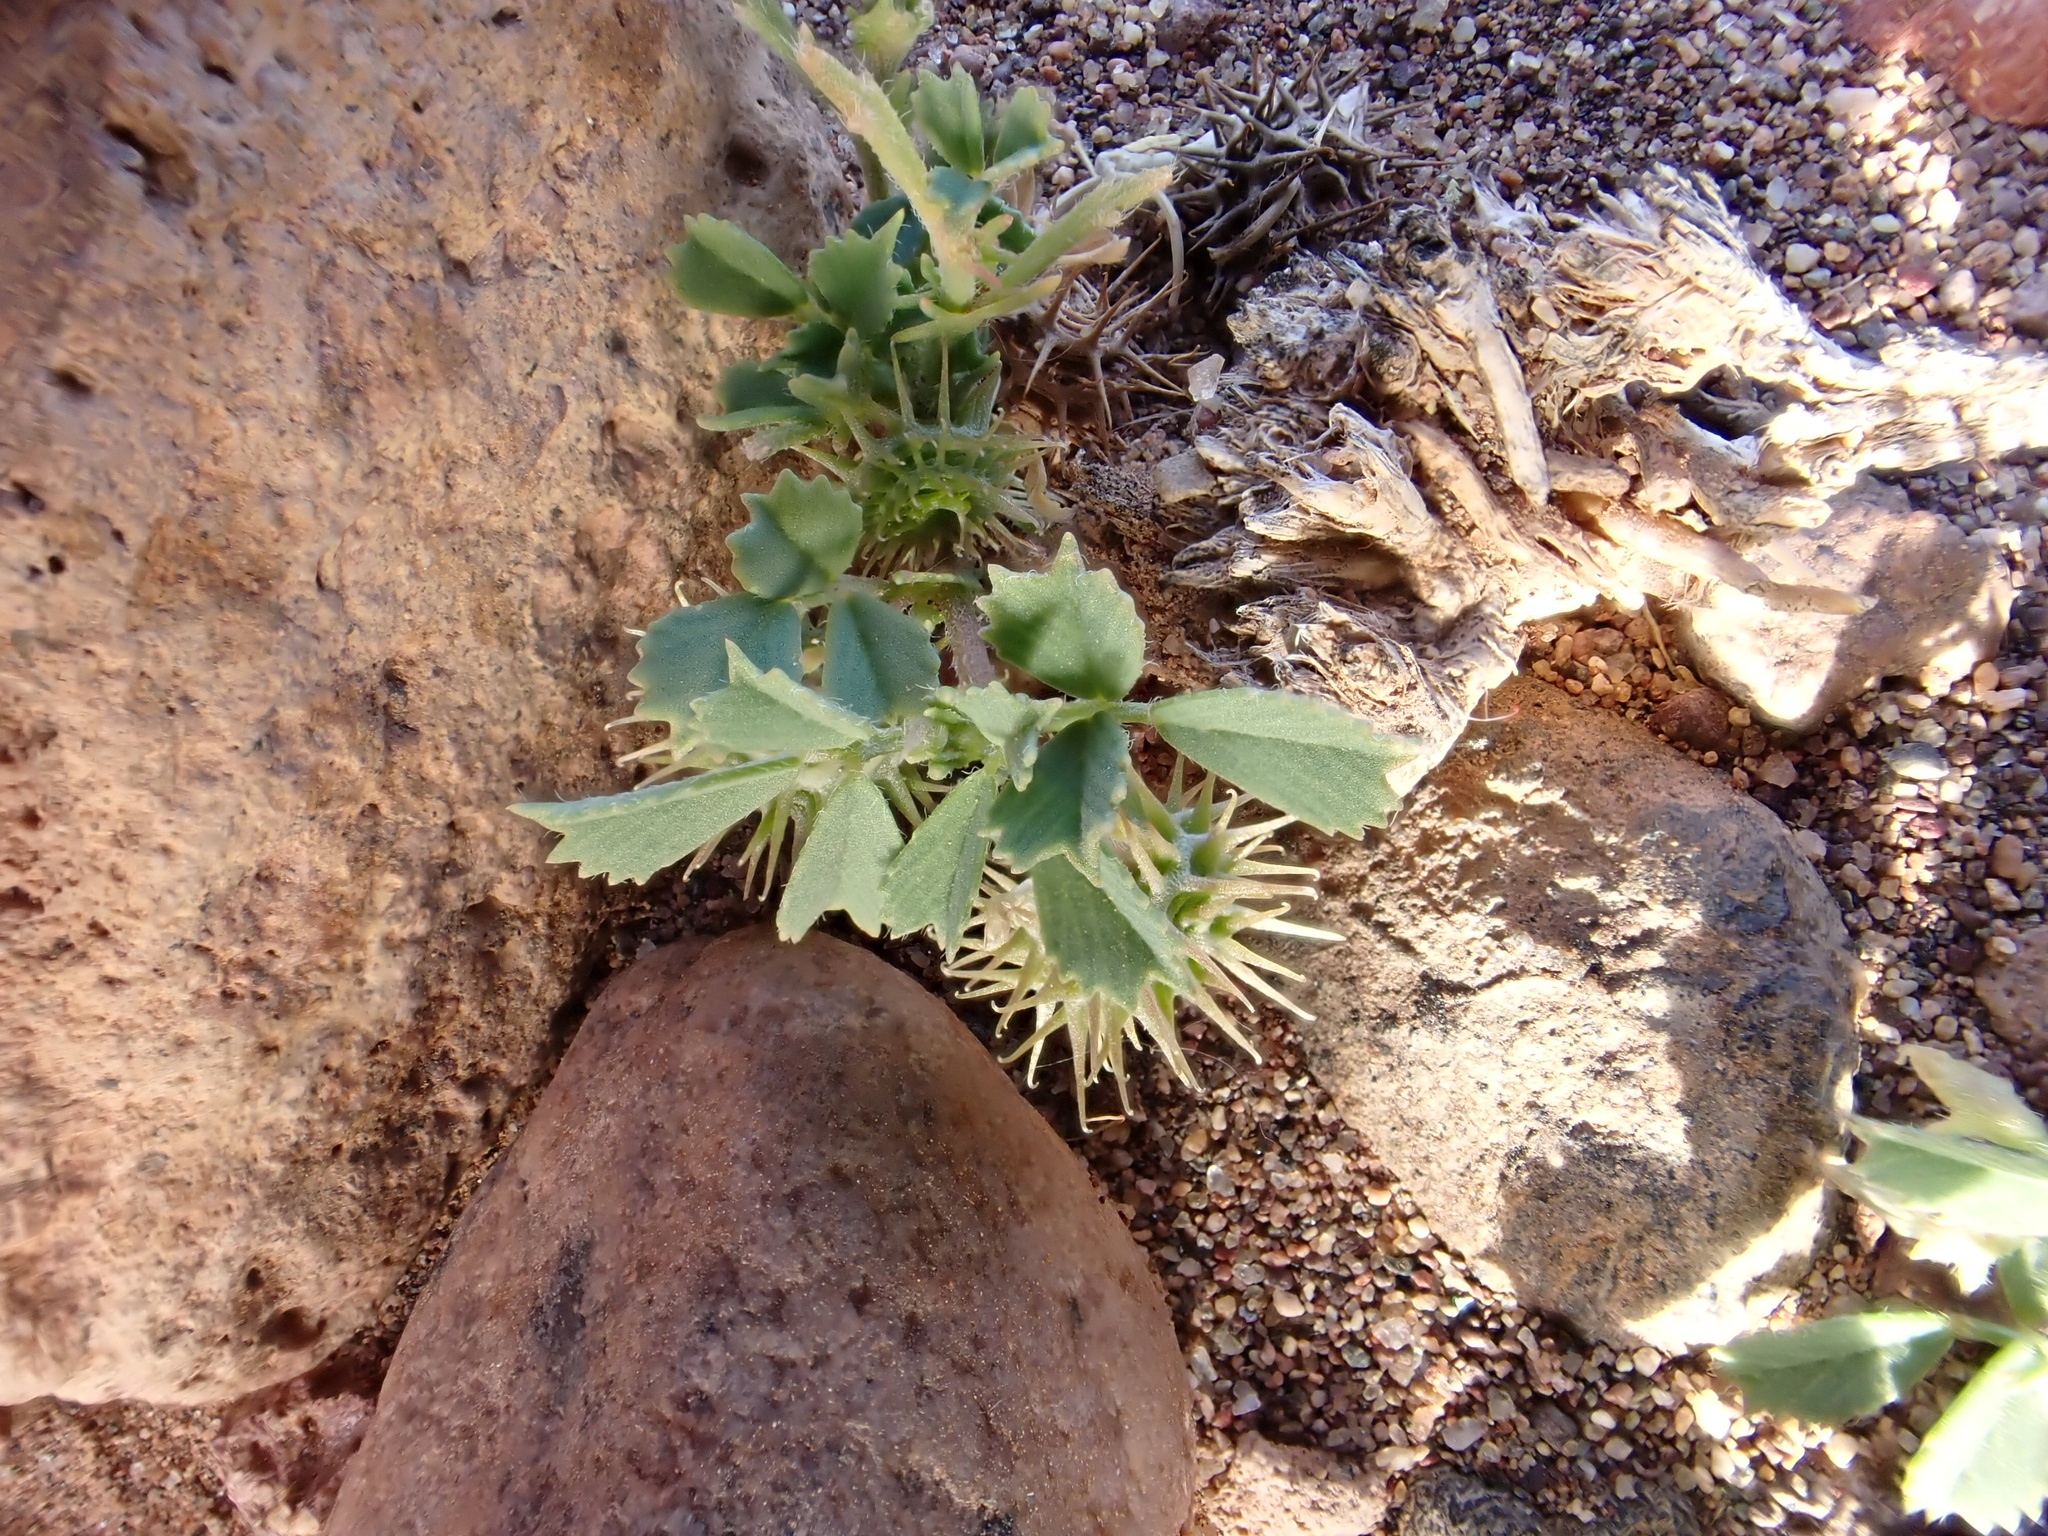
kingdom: Plantae
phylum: Tracheophyta
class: Magnoliopsida
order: Fabales
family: Fabaceae
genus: Medicago
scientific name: Medicago laciniata
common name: Tattered medick
